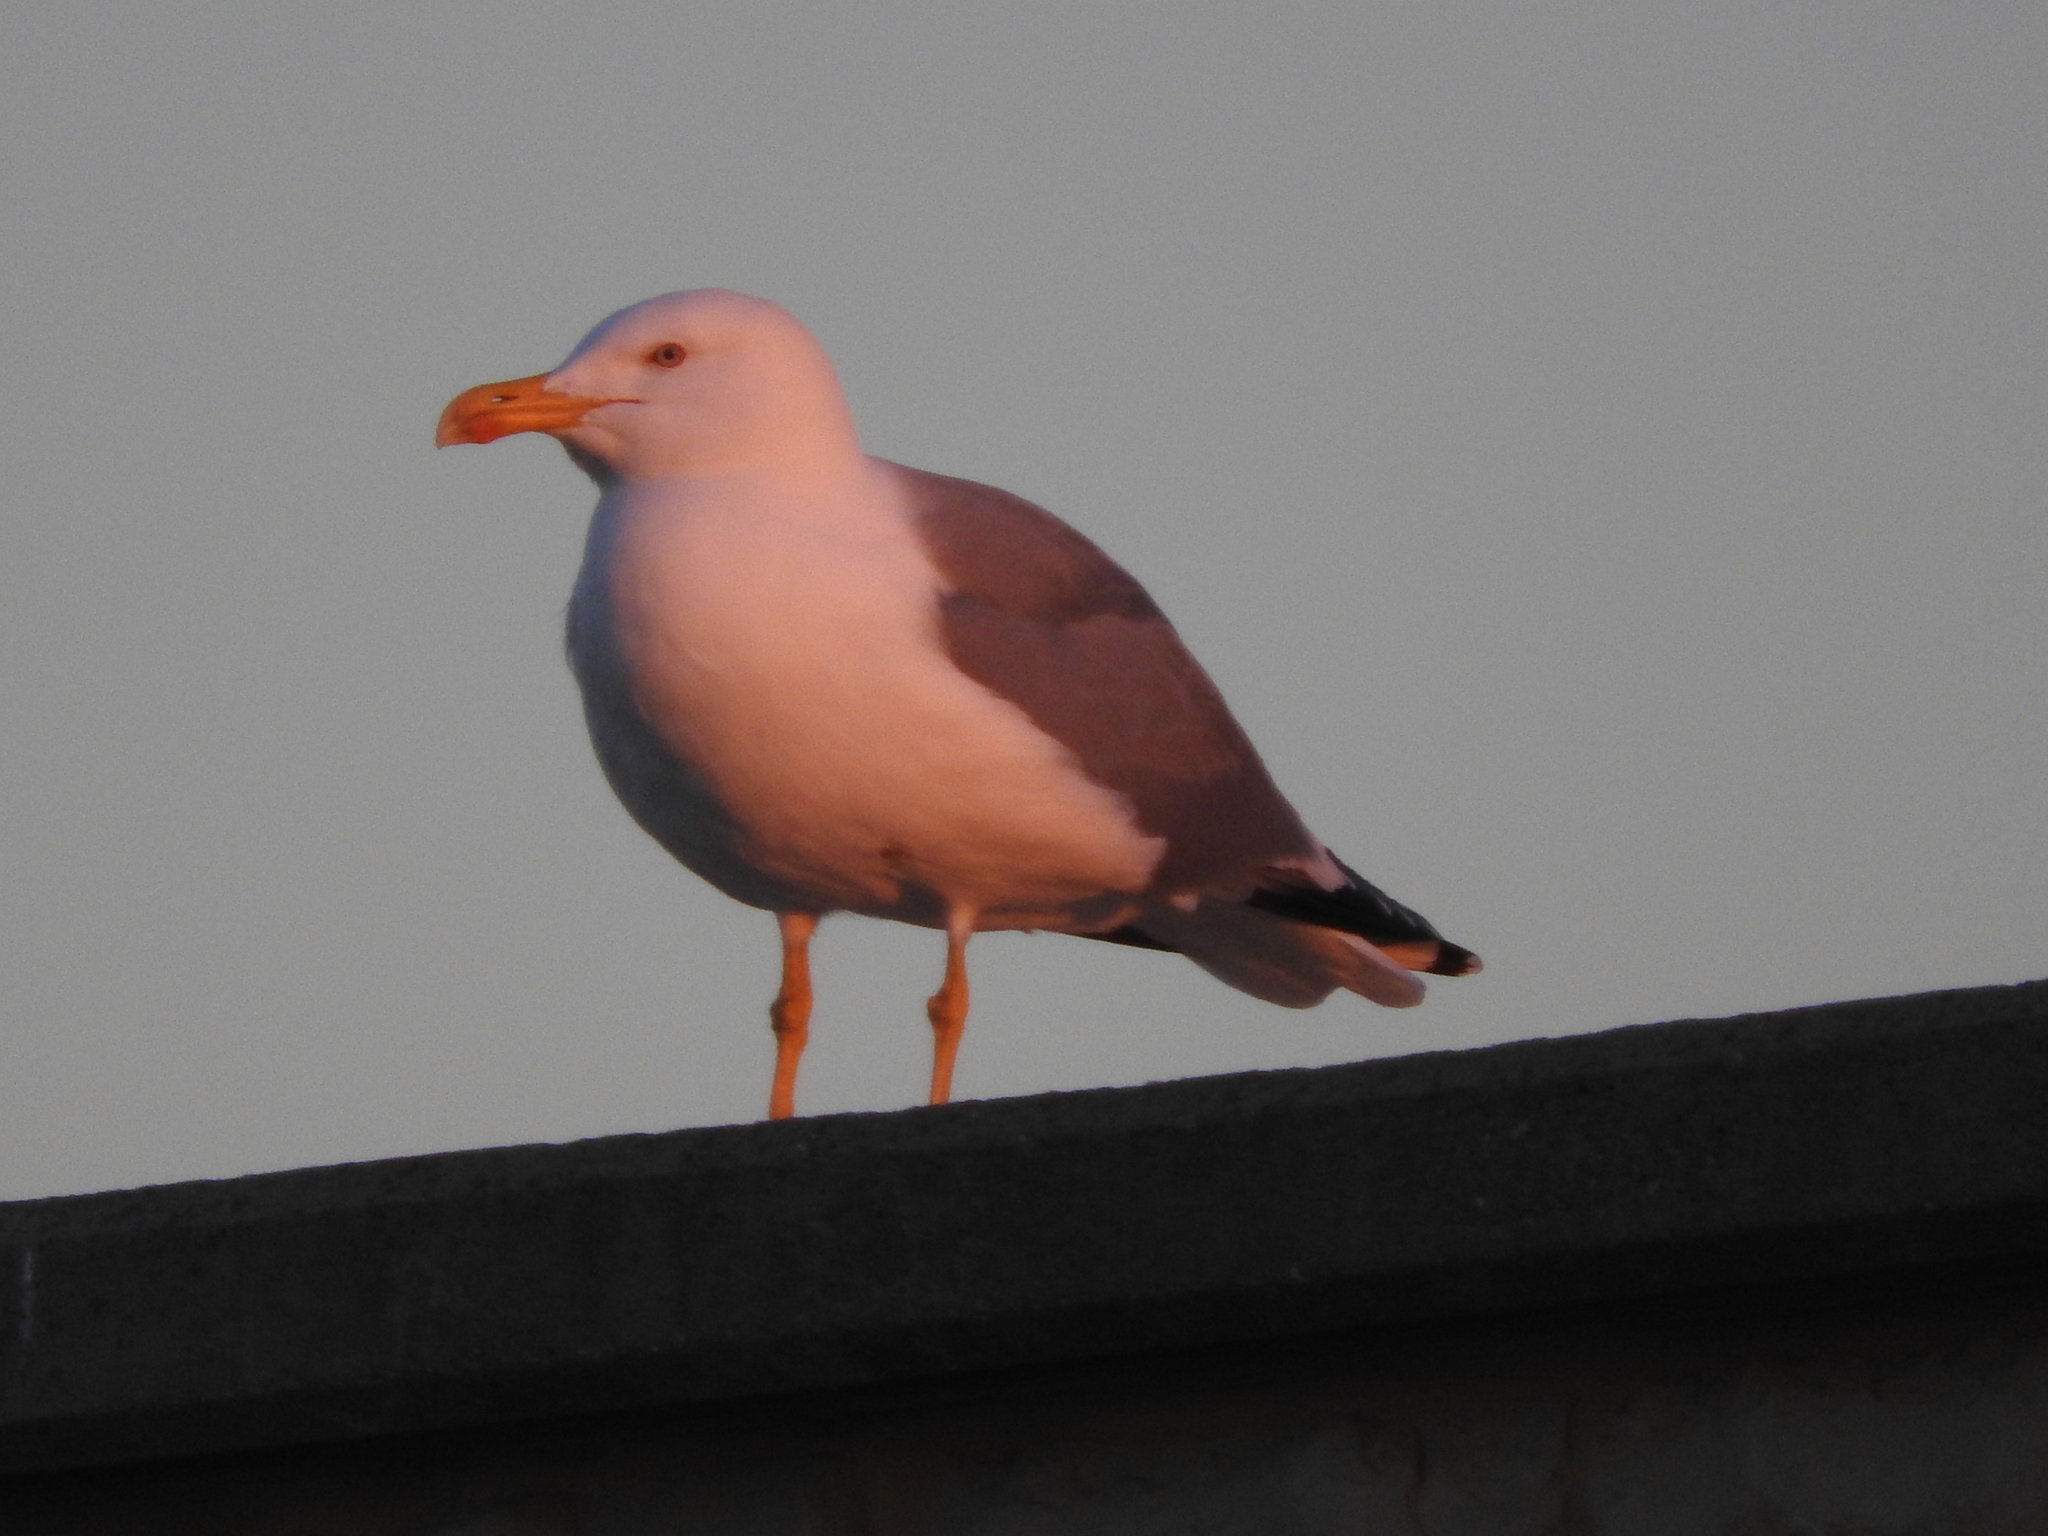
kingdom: Animalia
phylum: Chordata
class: Aves
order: Charadriiformes
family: Laridae
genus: Larus
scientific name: Larus michahellis
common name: Yellow-legged gull
